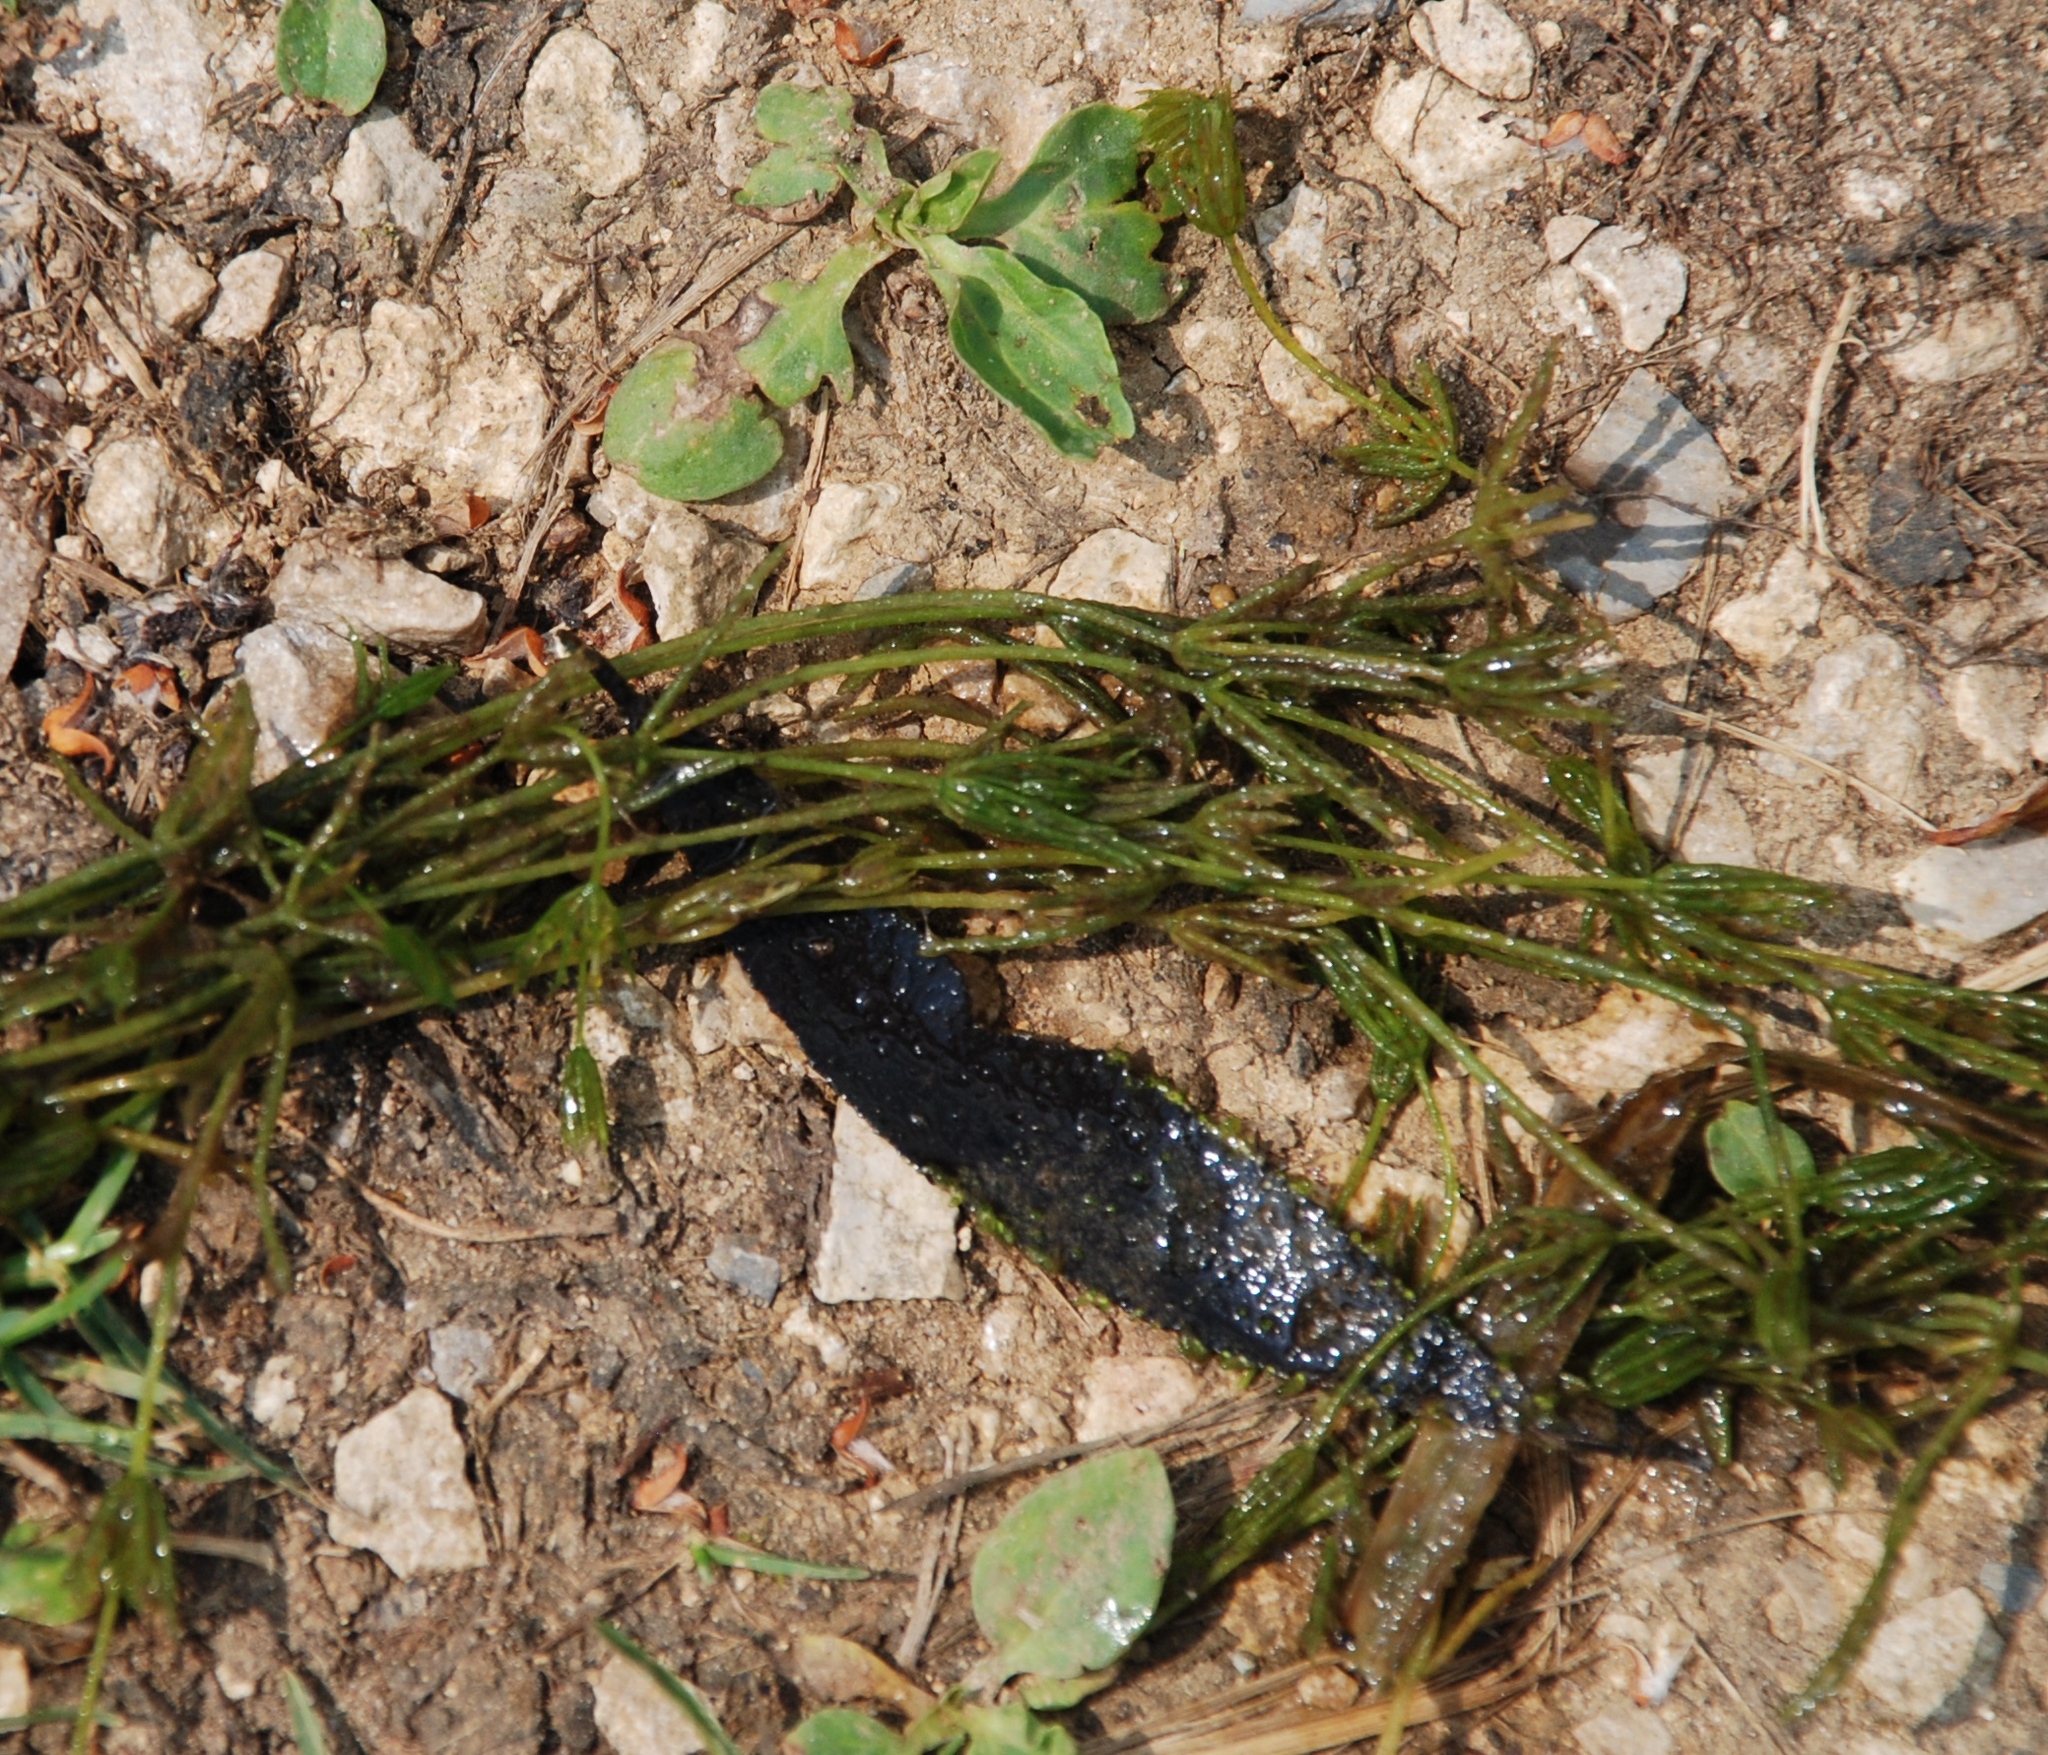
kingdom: Plantae
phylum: Charophyta
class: Charophyceae
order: Charales
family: Characeae
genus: Chara
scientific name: Chara globularis
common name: Fragile stonewort
